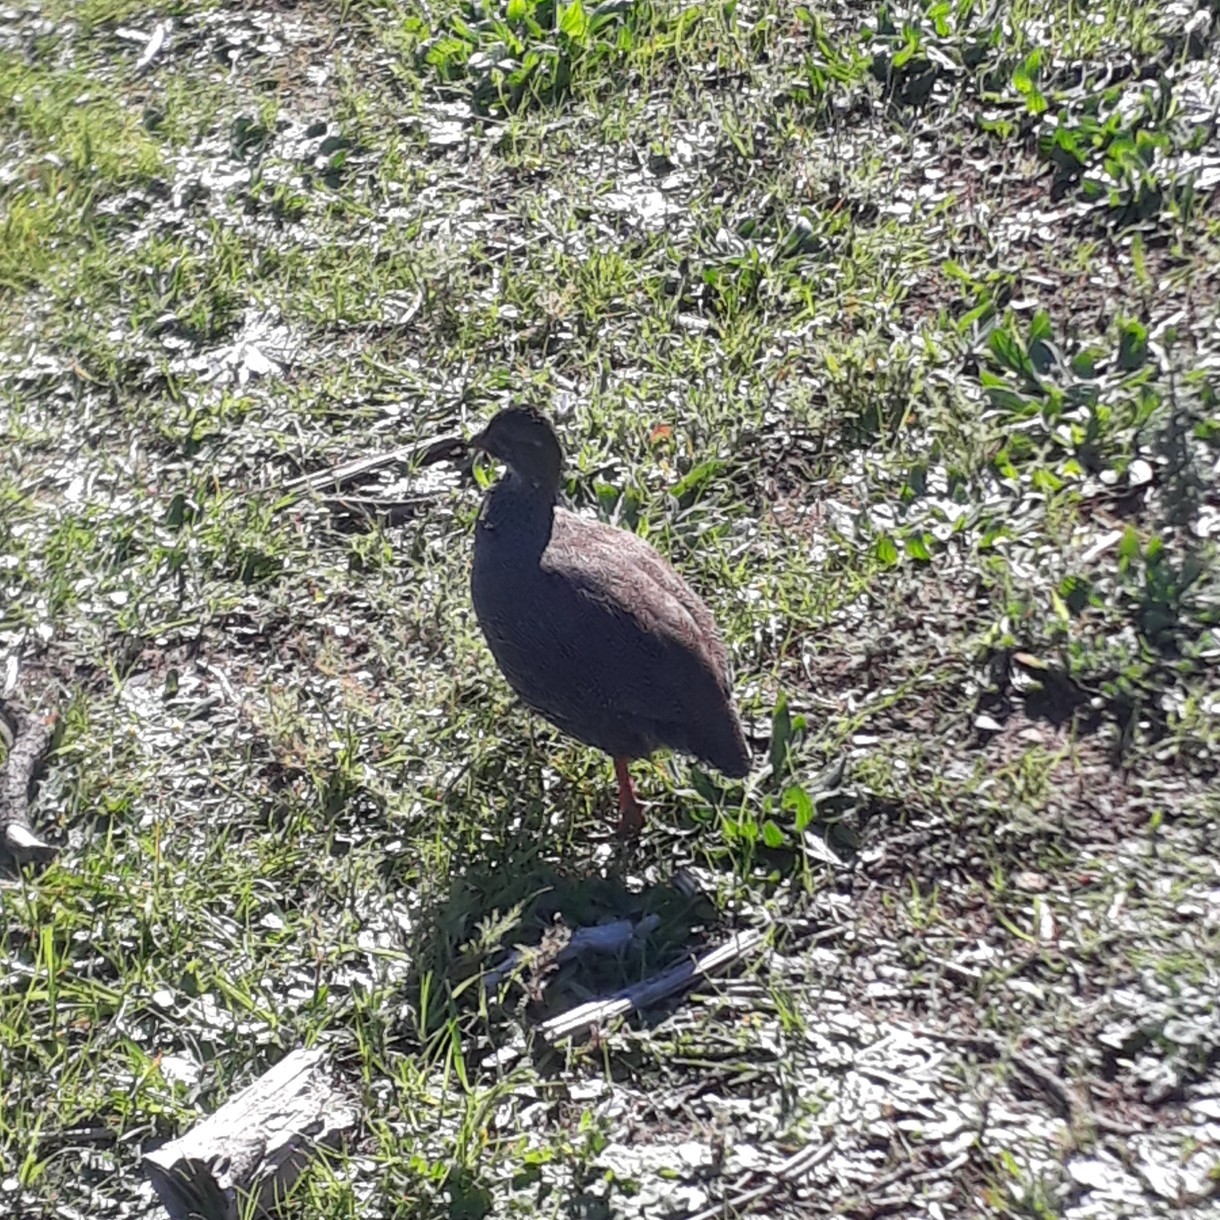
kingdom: Animalia
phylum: Chordata
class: Aves
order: Galliformes
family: Phasianidae
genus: Pternistis
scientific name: Pternistis capensis
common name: Cape spurfowl
